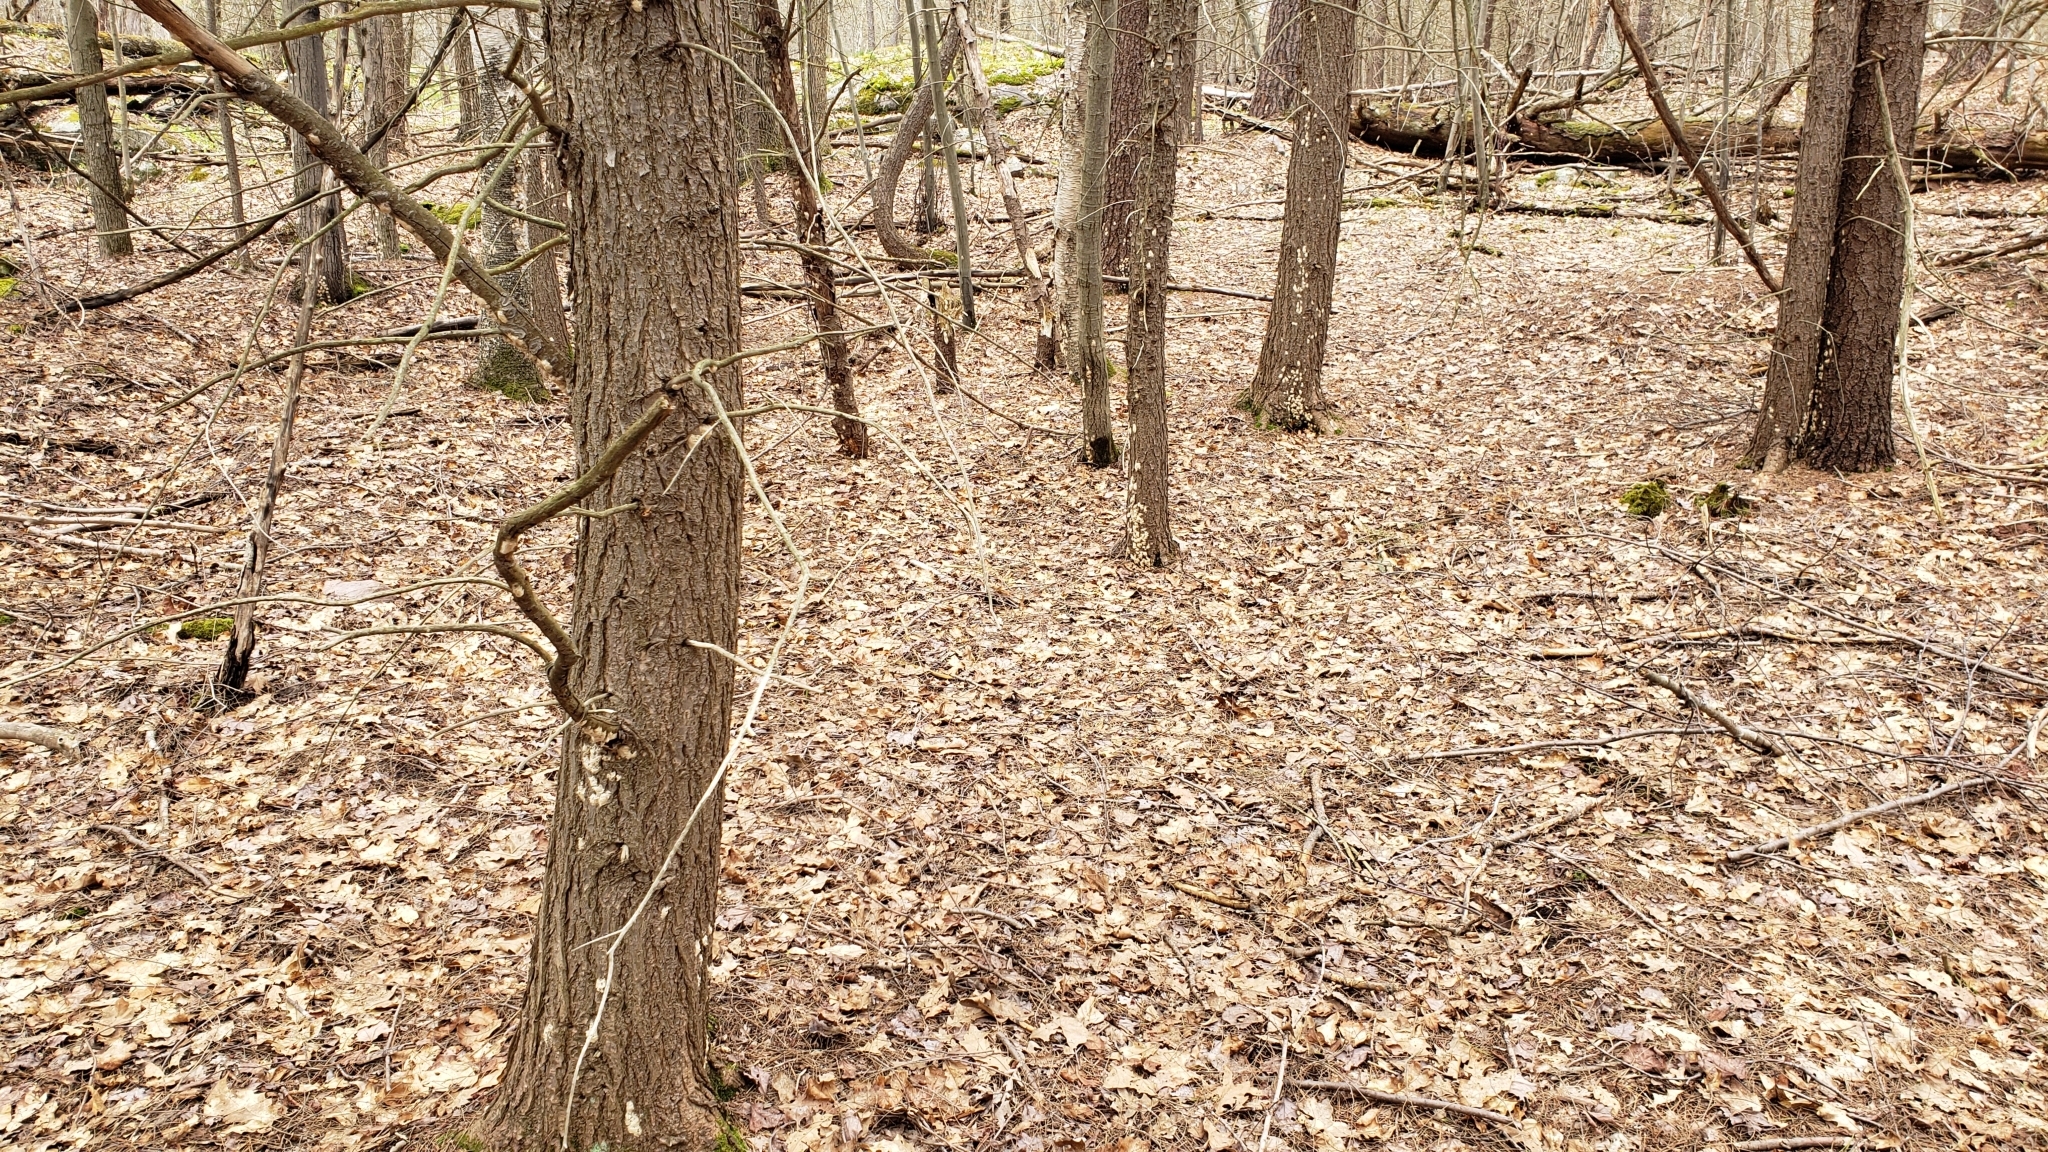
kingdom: Animalia
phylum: Arthropoda
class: Insecta
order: Lepidoptera
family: Erebidae
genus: Lymantria
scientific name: Lymantria dispar
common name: Gypsy moth
